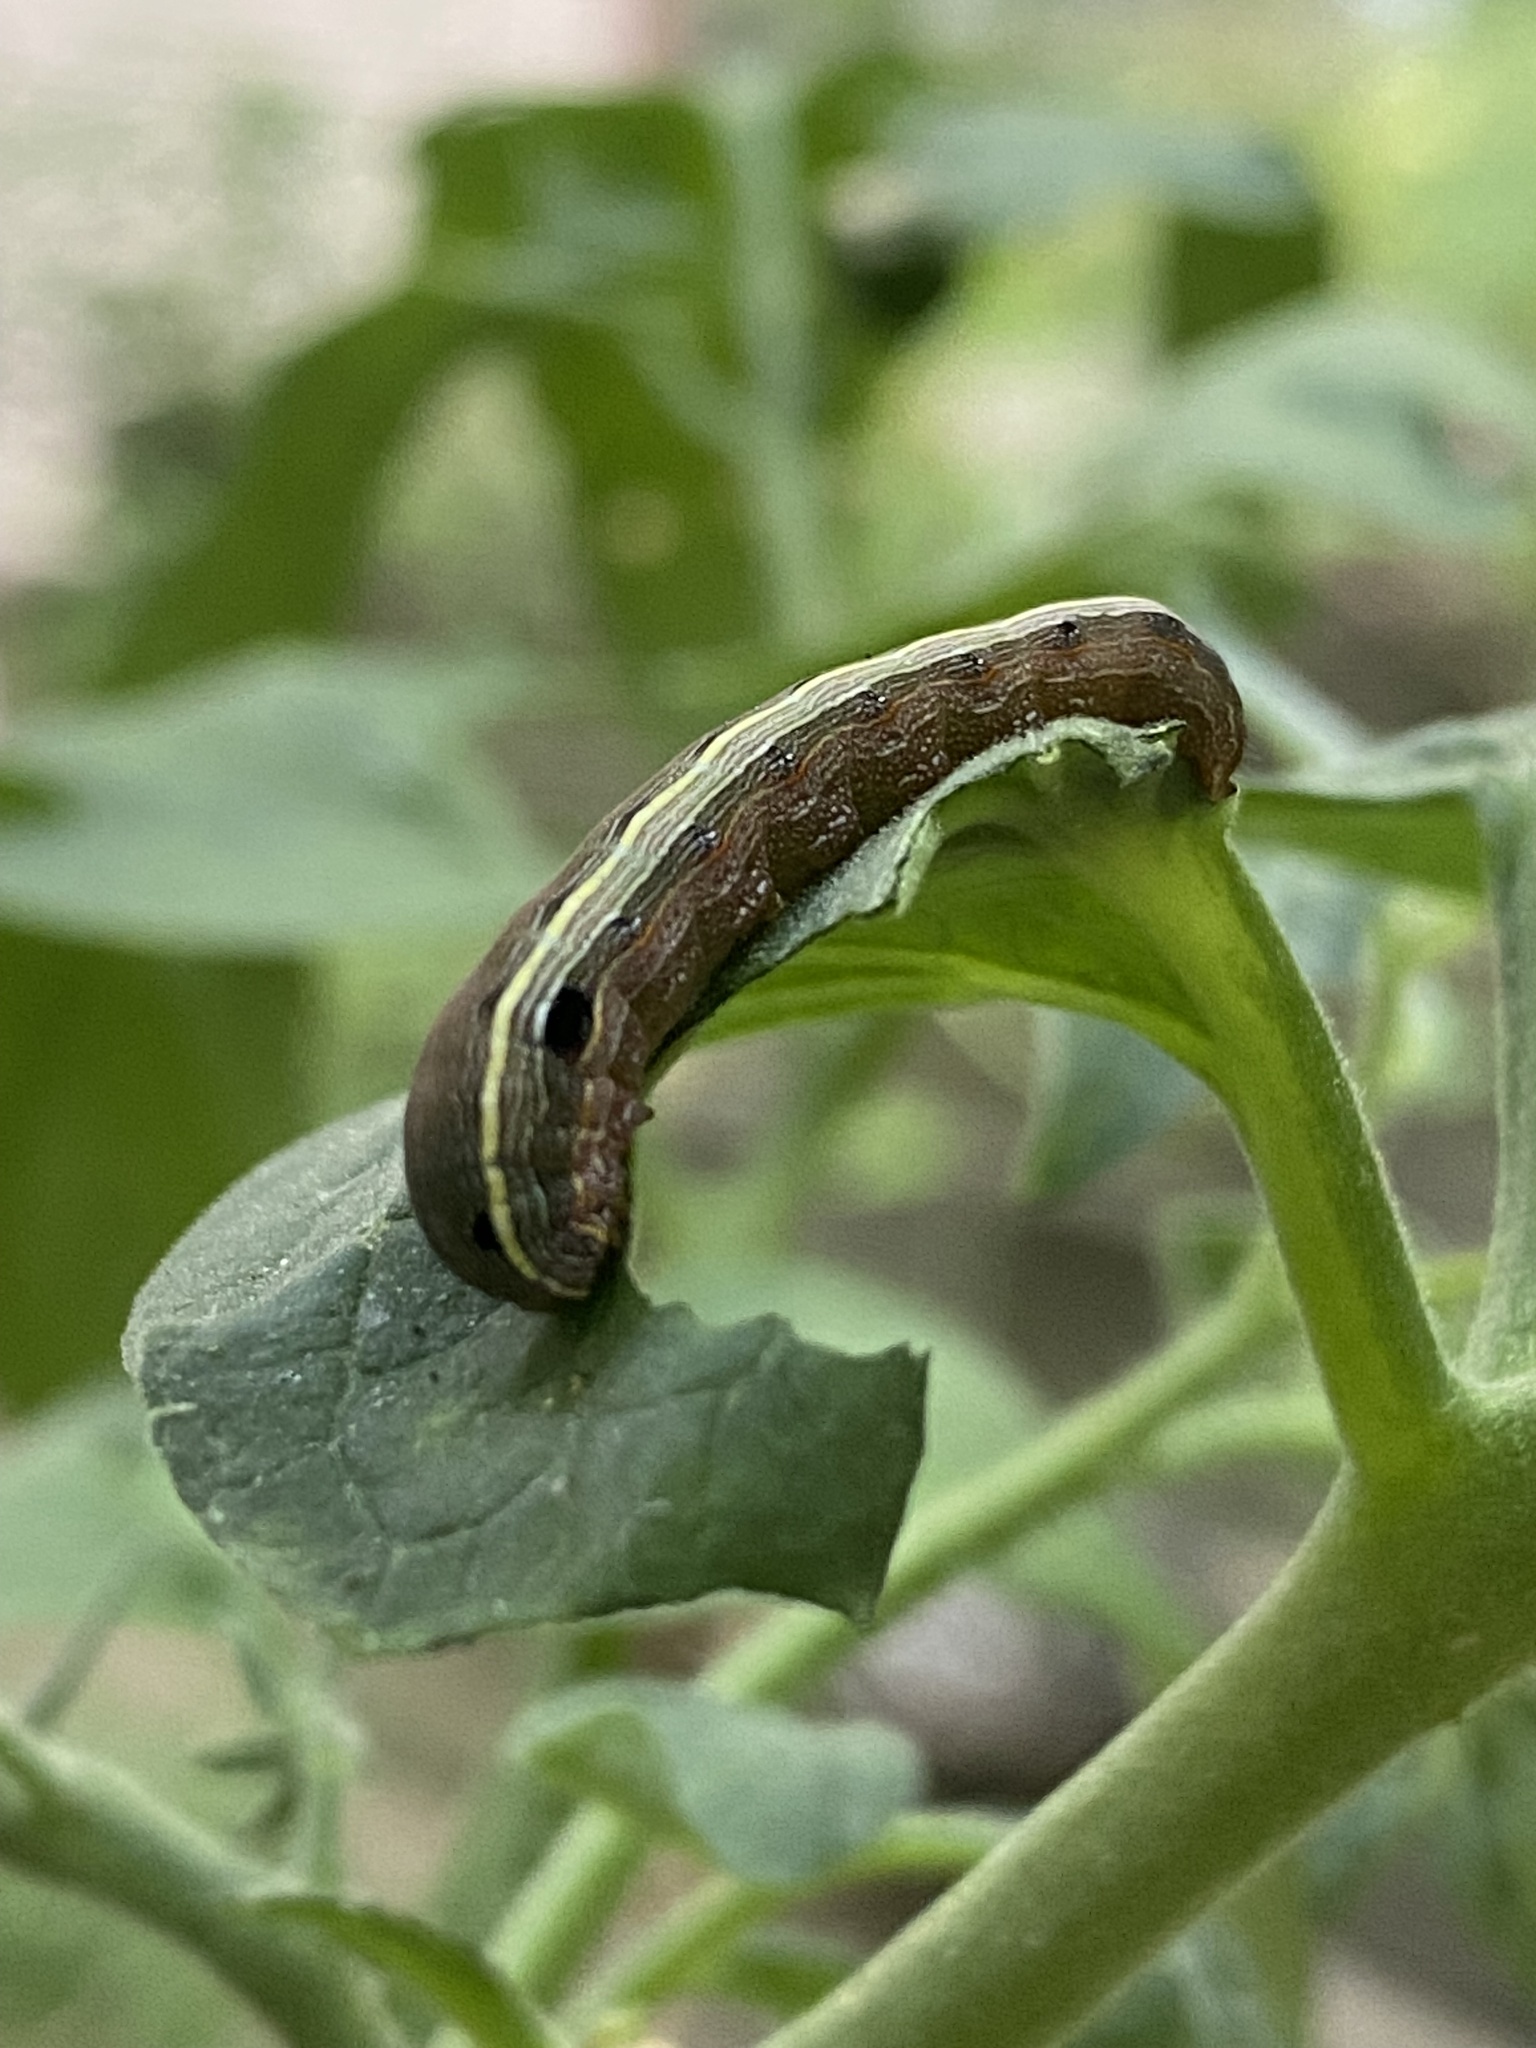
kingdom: Animalia
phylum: Arthropoda
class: Insecta
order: Lepidoptera
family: Noctuidae
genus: Spodoptera
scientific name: Spodoptera ornithogalli
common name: Yellow-striped armyworm
